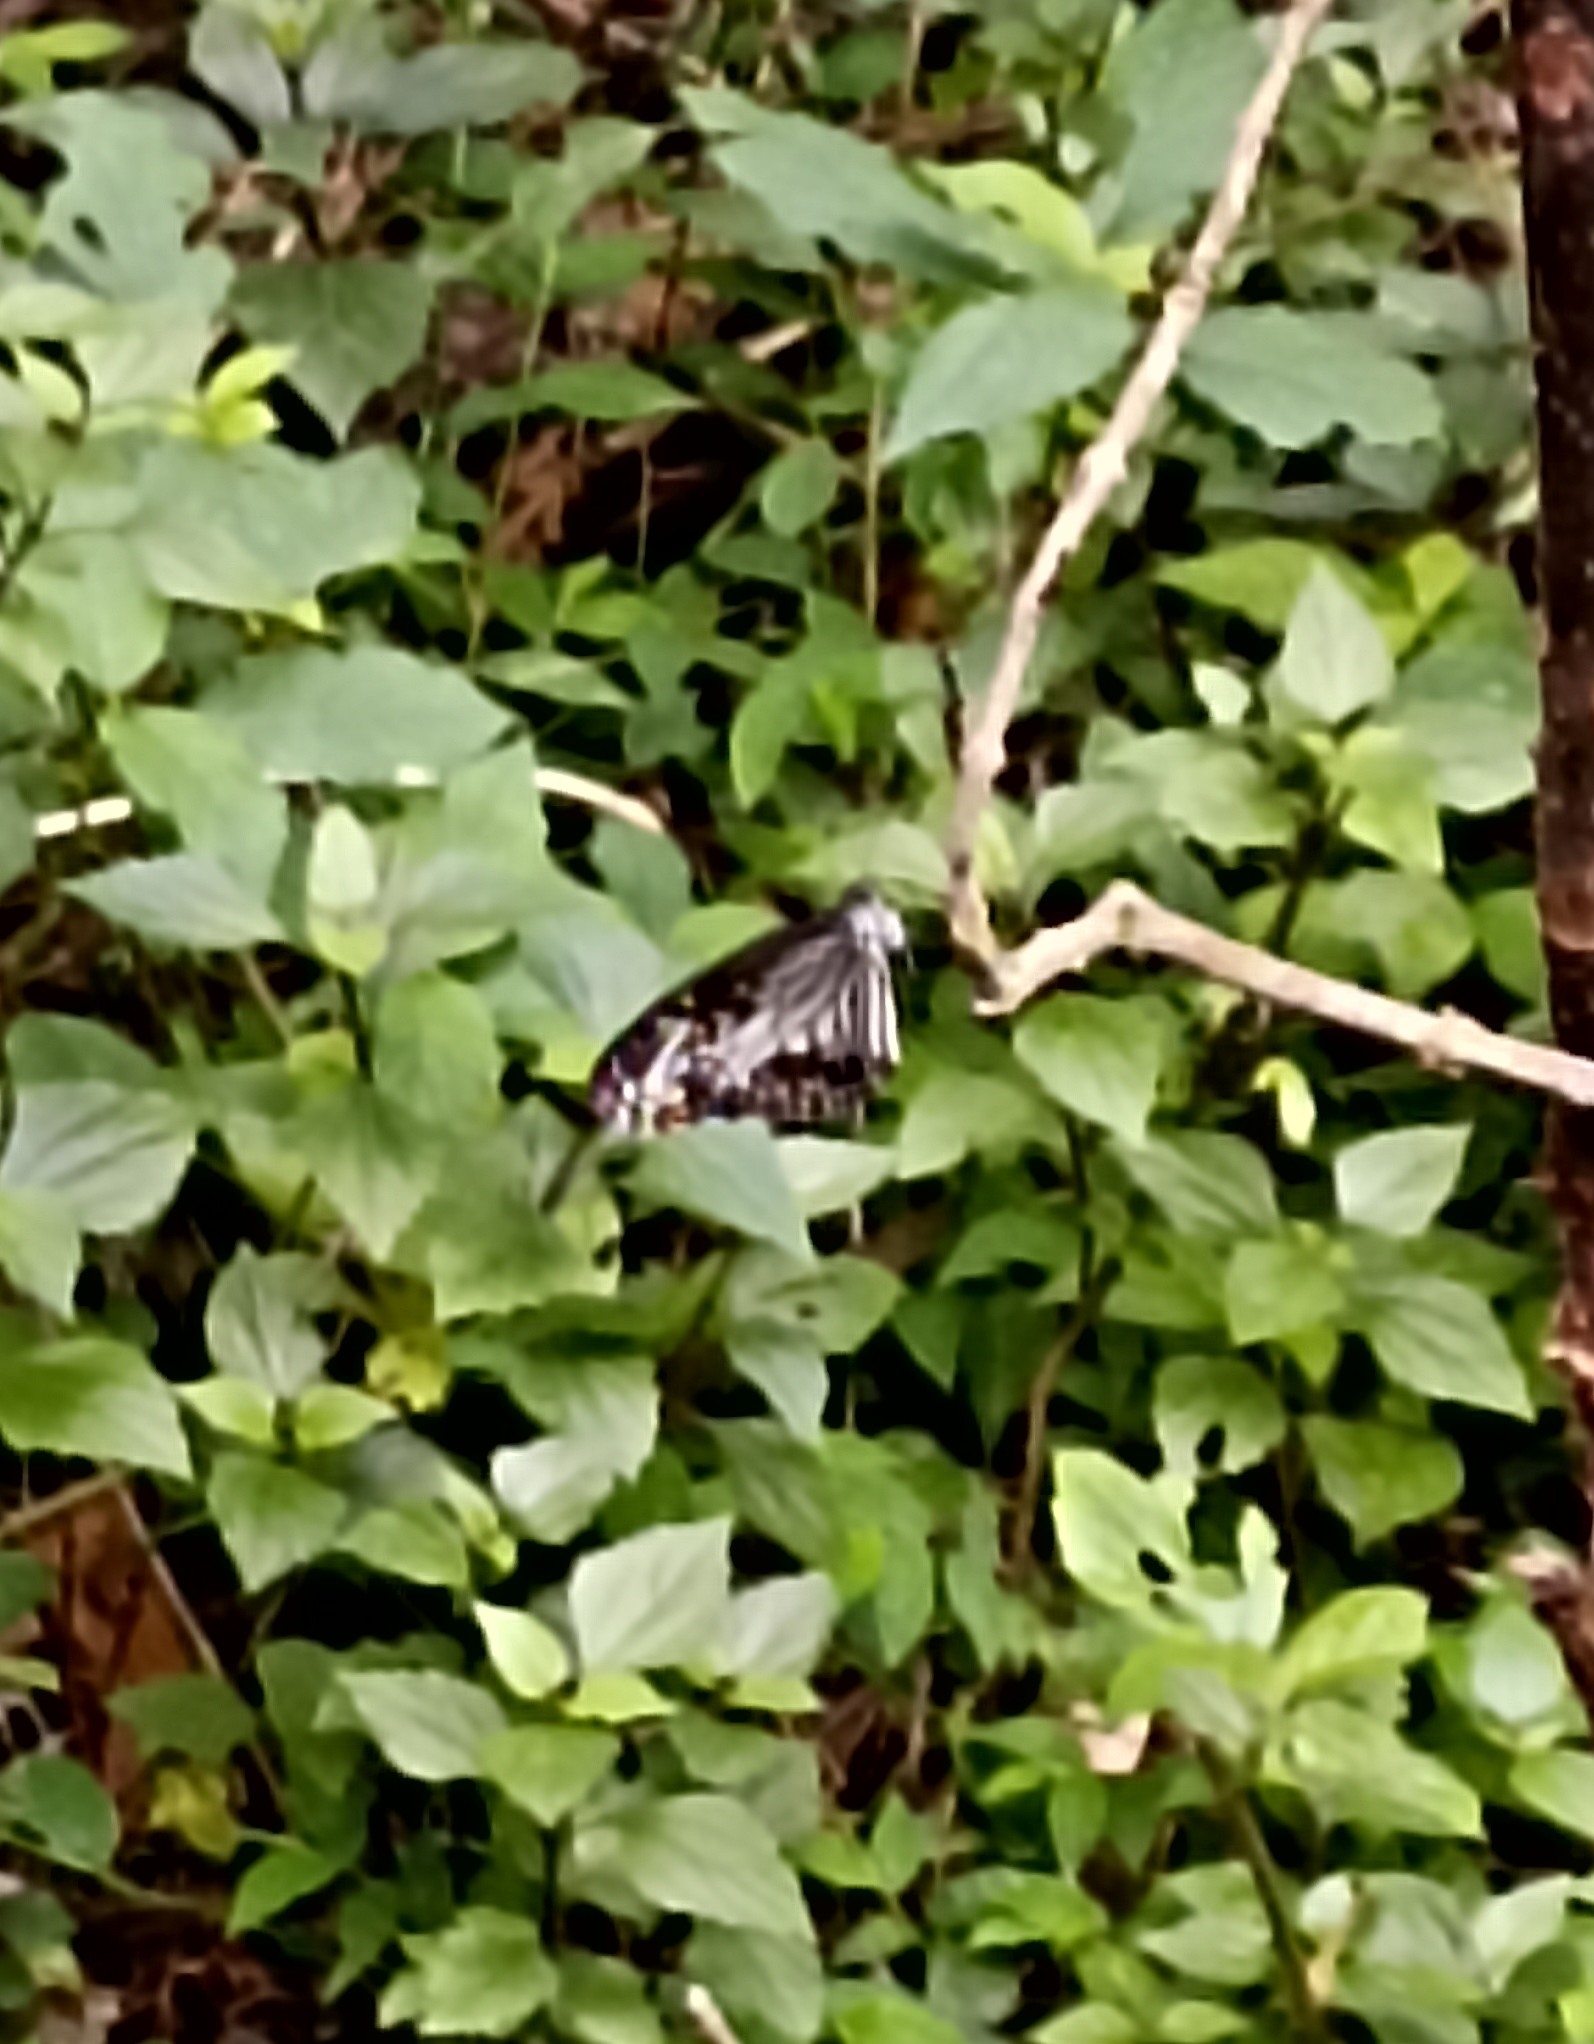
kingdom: Animalia
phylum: Arthropoda
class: Insecta
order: Lepidoptera
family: Nymphalidae
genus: Parantica
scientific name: Parantica aglea
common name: Glassy tiger
